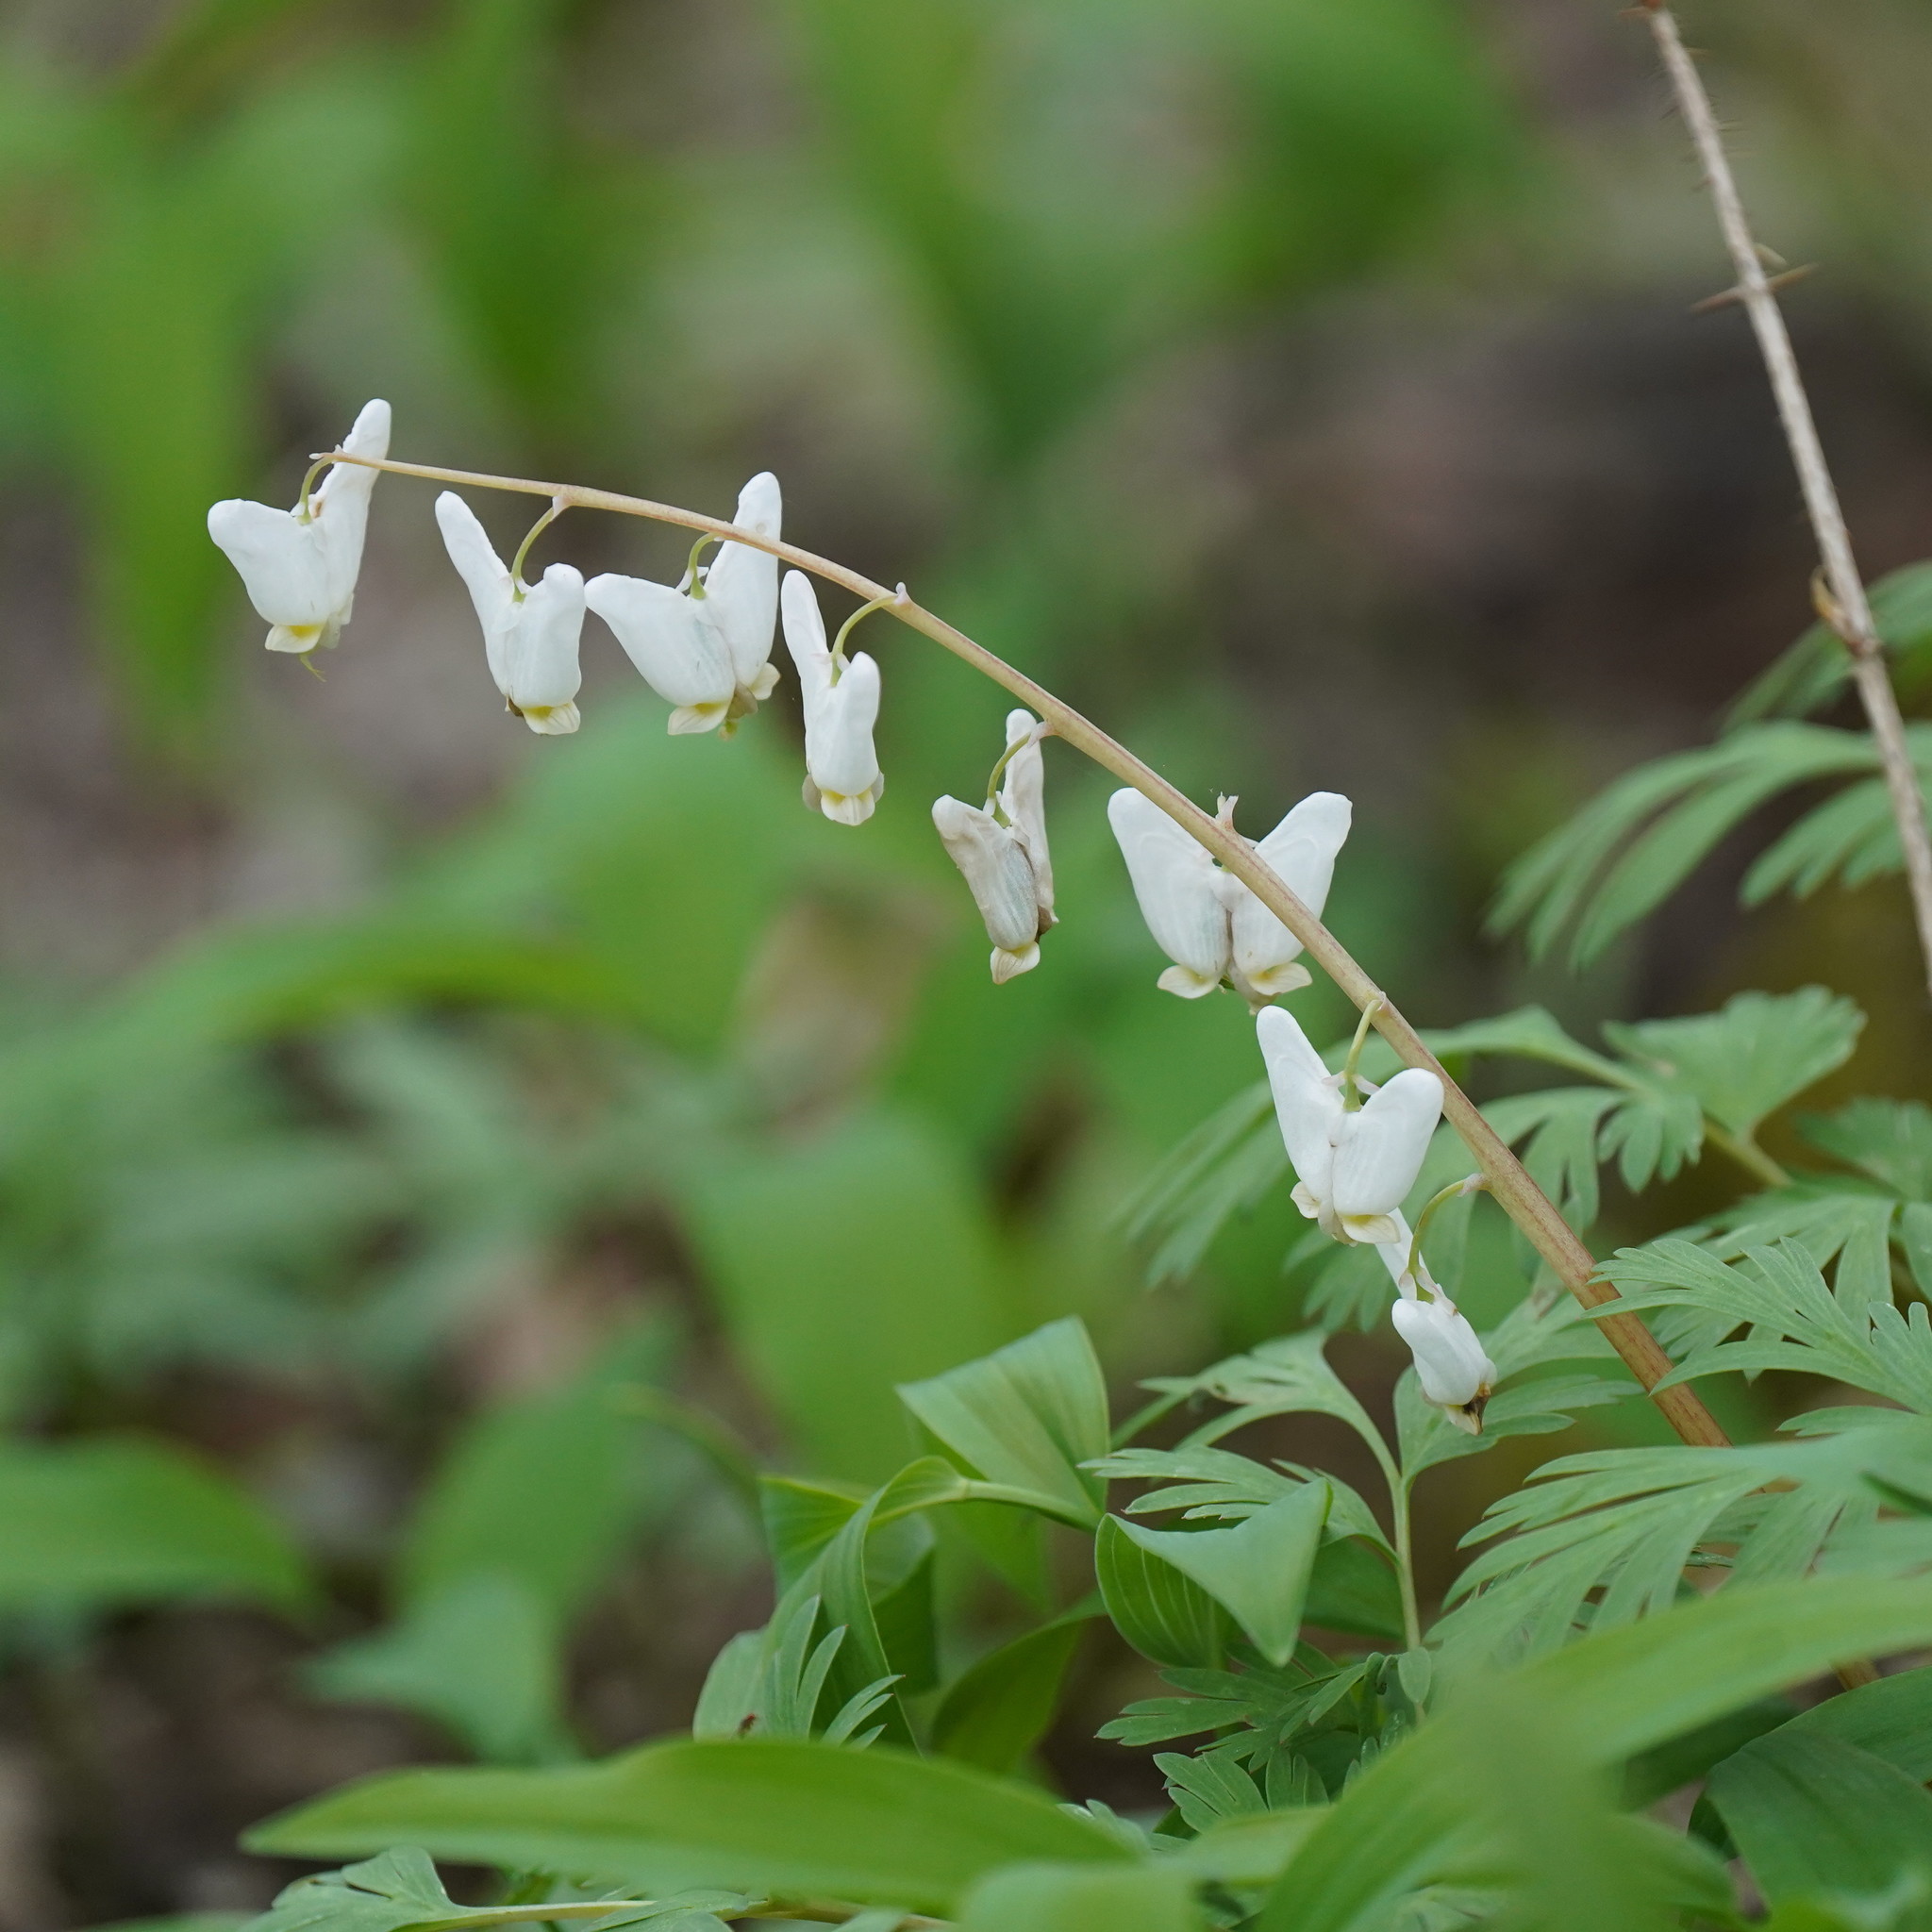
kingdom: Plantae
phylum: Tracheophyta
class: Magnoliopsida
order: Ranunculales
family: Papaveraceae
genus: Dicentra
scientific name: Dicentra cucullaria
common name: Dutchman's breeches
